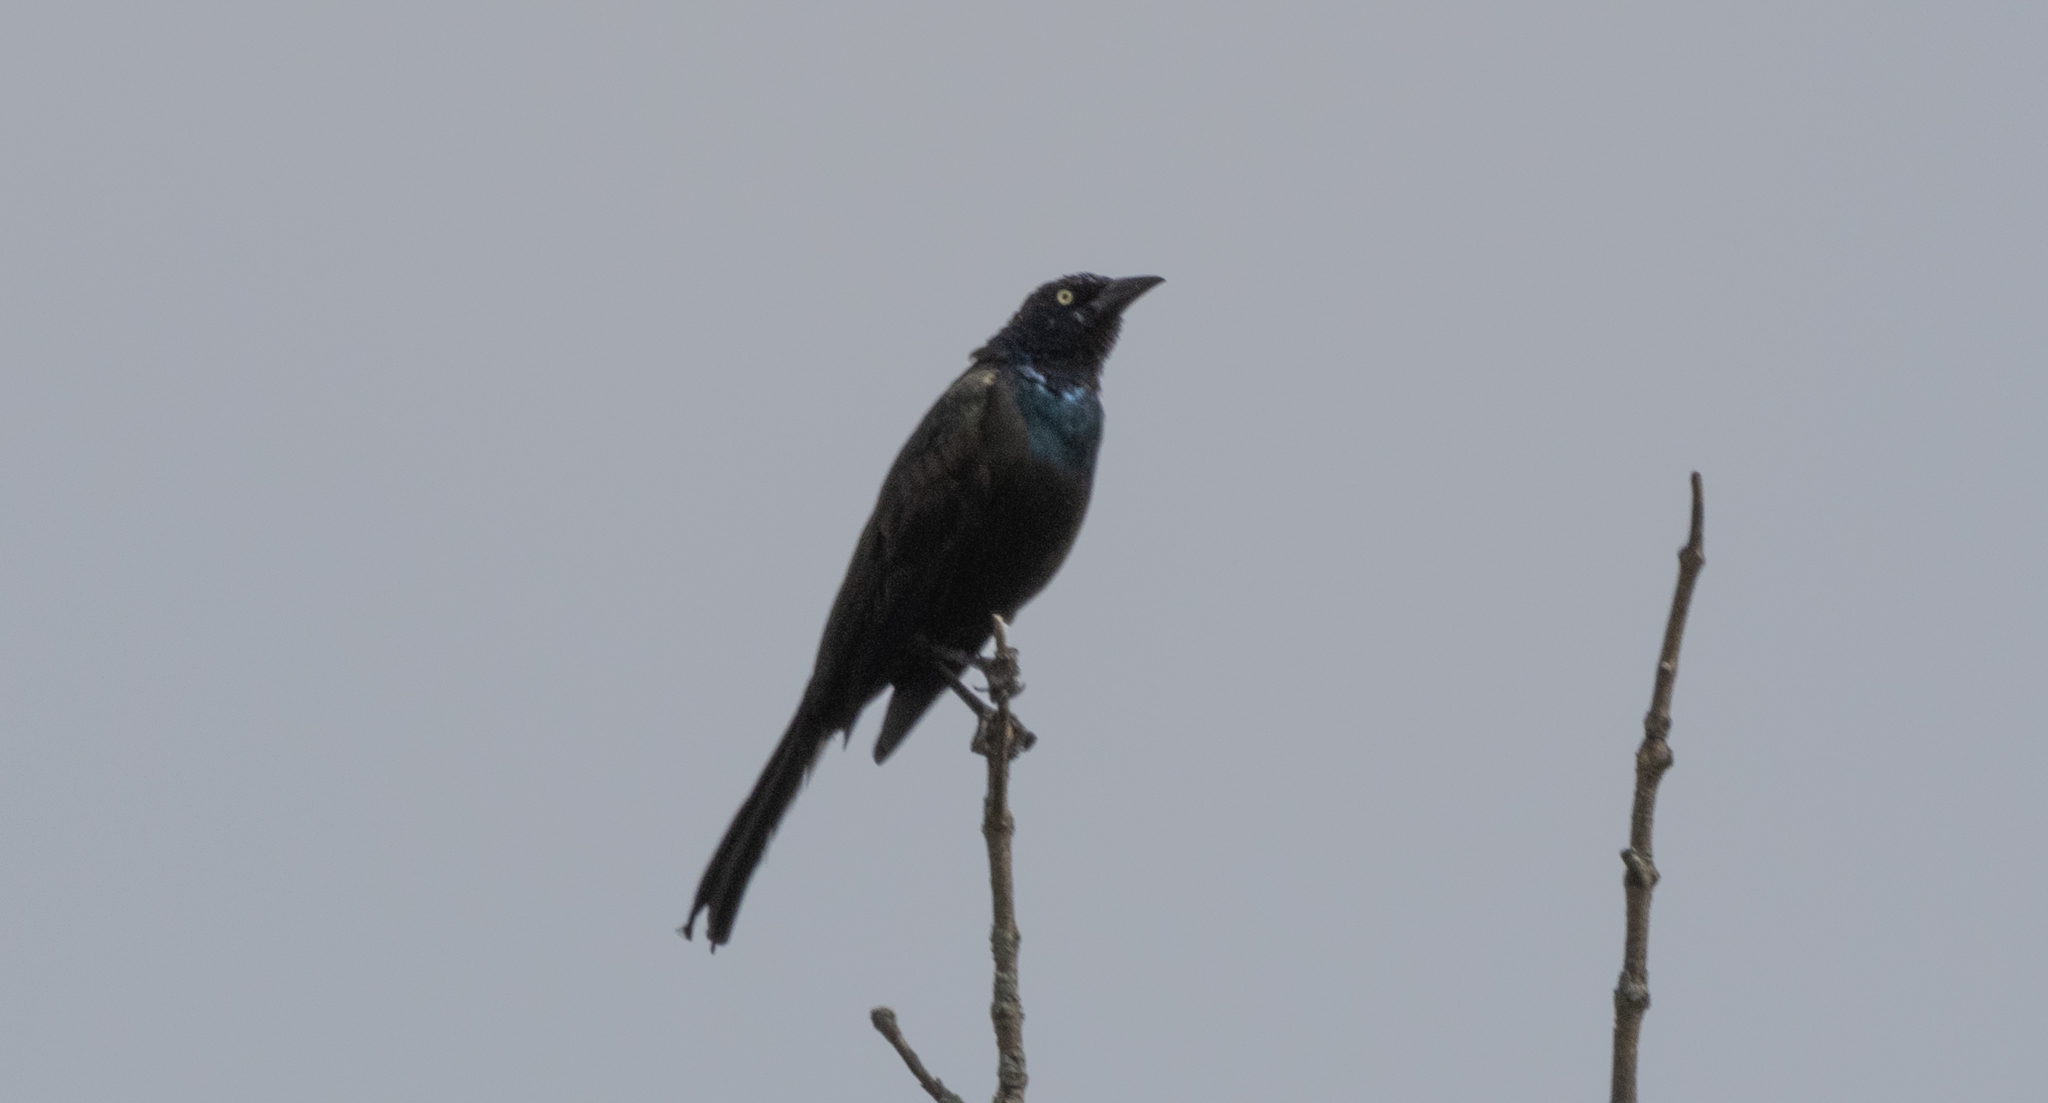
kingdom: Animalia
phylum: Chordata
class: Aves
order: Passeriformes
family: Icteridae
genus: Quiscalus
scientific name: Quiscalus quiscula
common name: Common grackle
